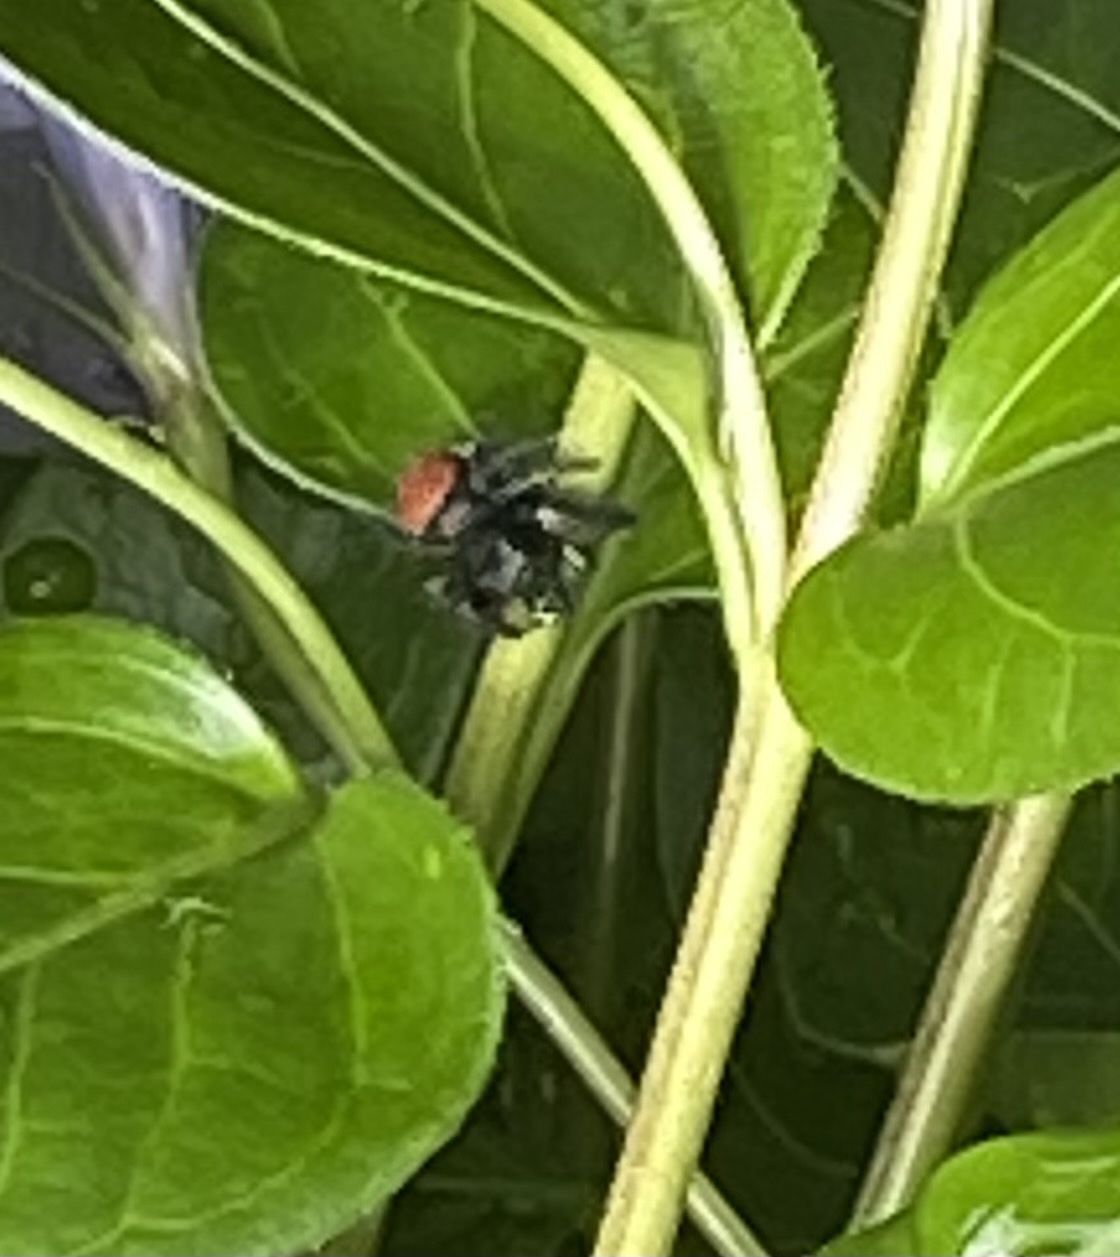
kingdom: Animalia
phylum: Arthropoda
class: Arachnida
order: Araneae
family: Salticidae
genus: Phidippus
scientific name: Phidippus johnsoni
